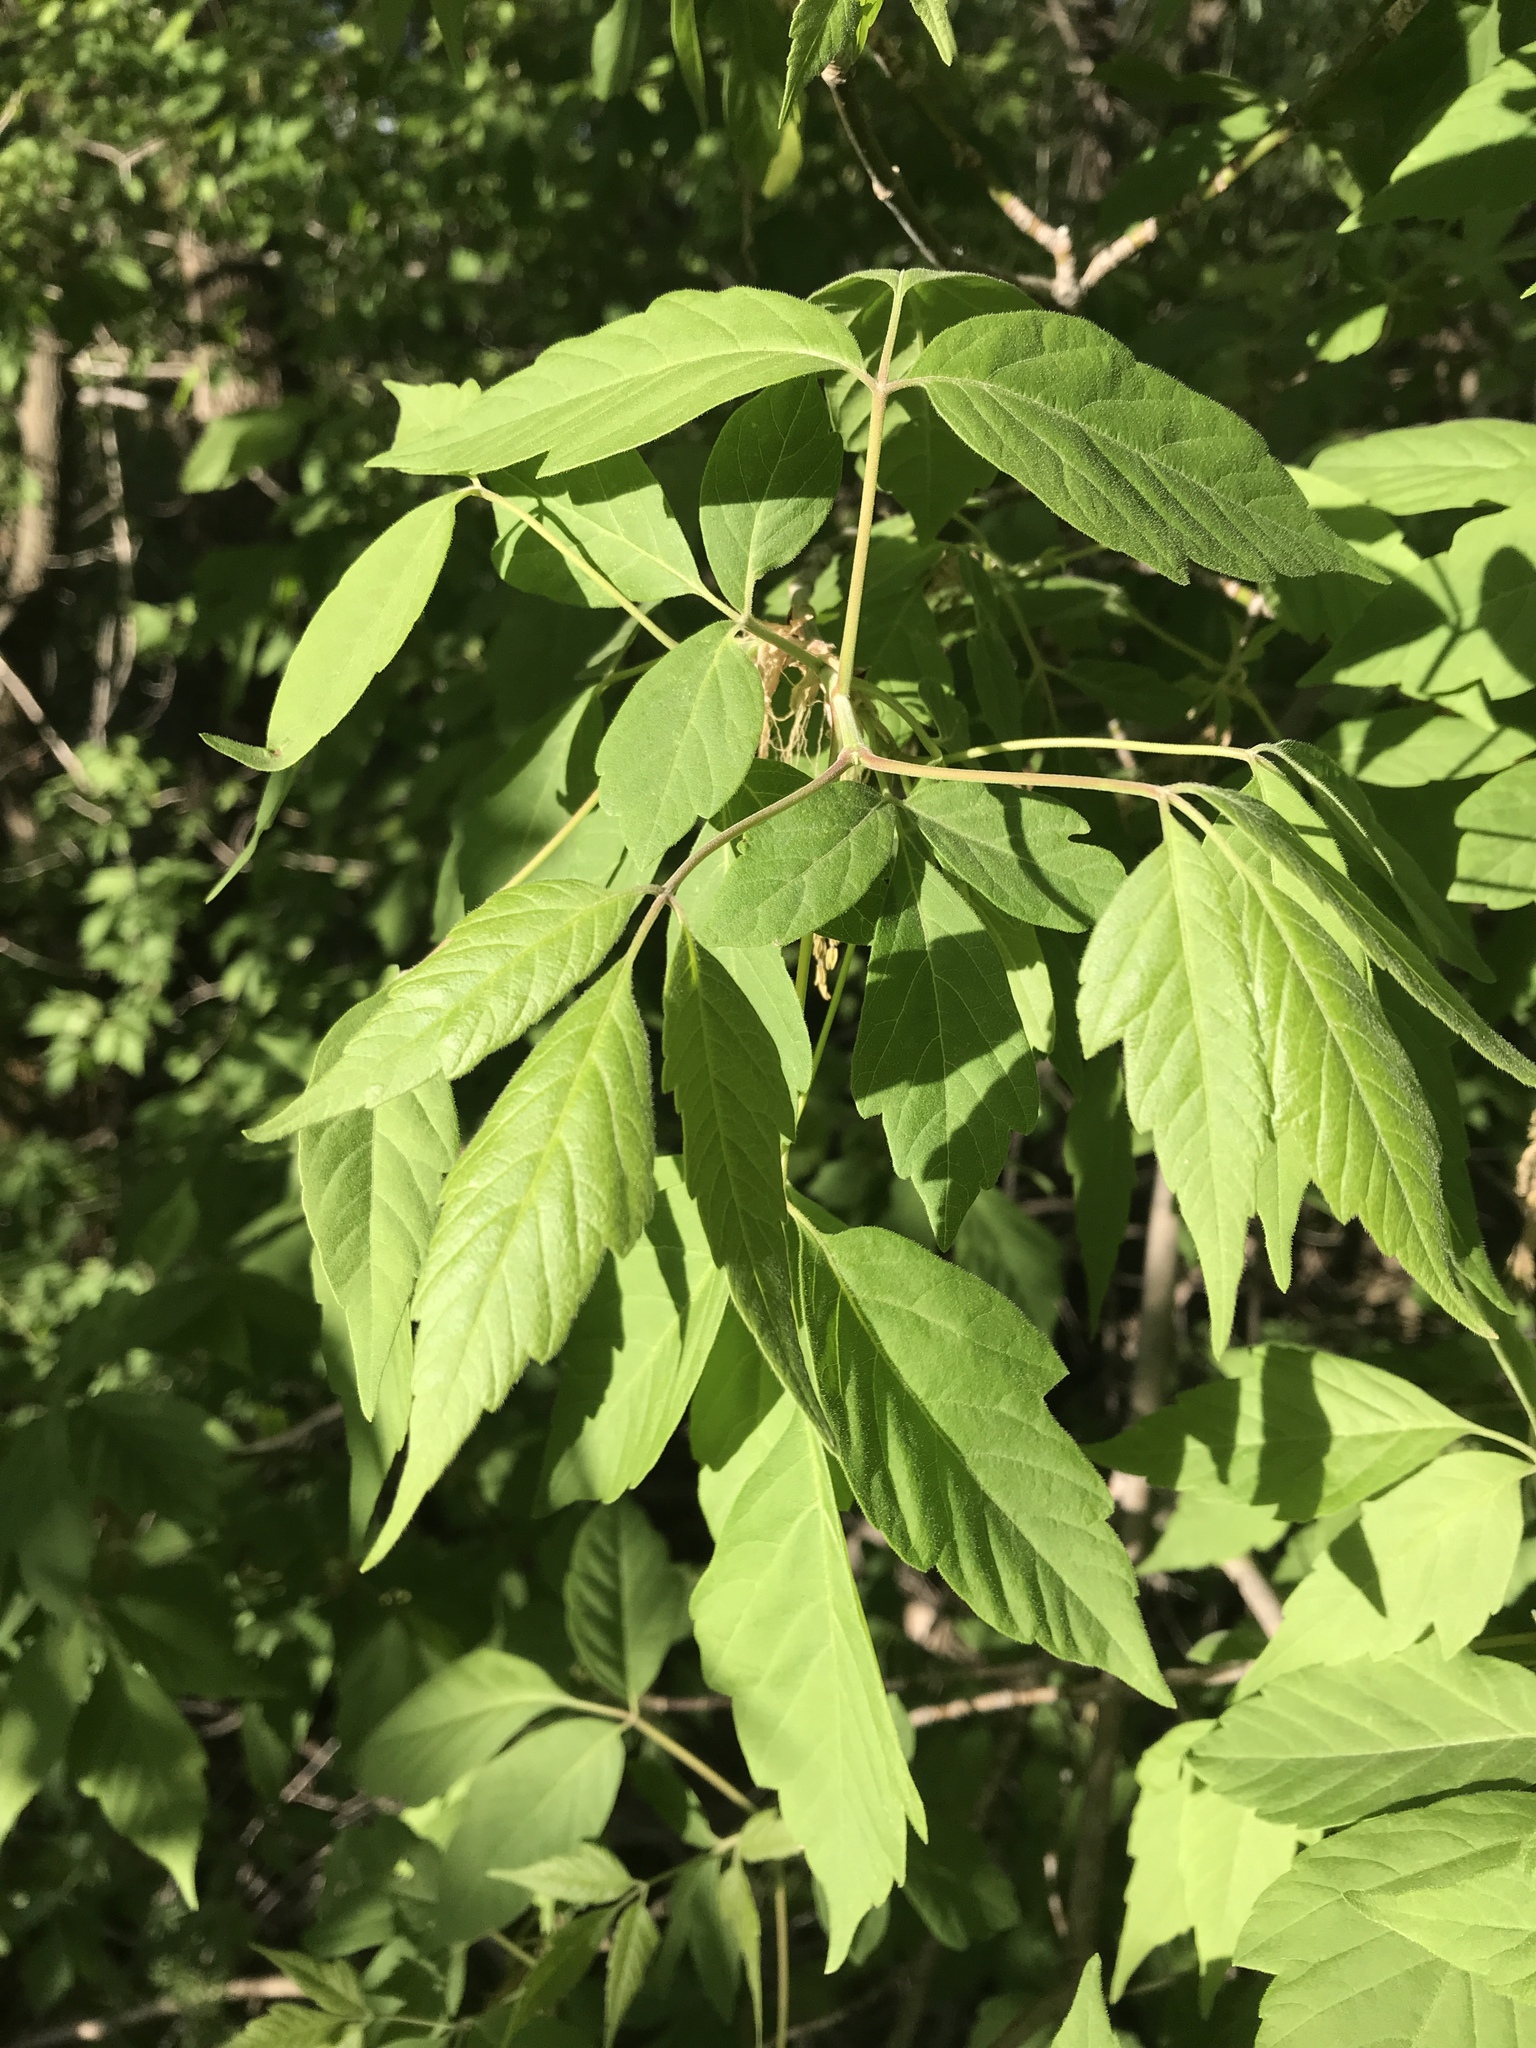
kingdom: Plantae
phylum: Tracheophyta
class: Magnoliopsida
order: Sapindales
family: Sapindaceae
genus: Acer
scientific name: Acer negundo
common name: Ashleaf maple
